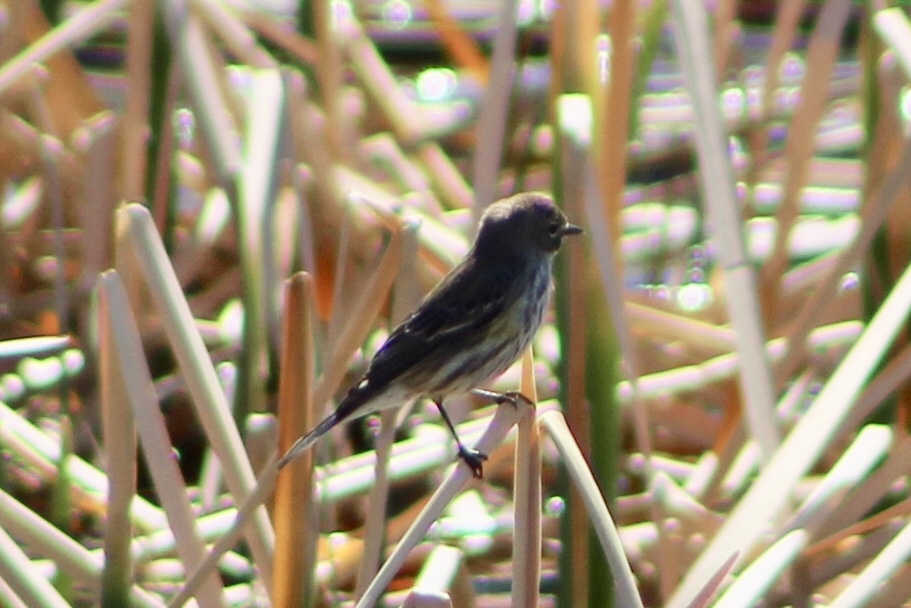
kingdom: Animalia
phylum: Chordata
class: Aves
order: Passeriformes
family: Parulidae
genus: Setophaga
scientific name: Setophaga coronata
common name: Myrtle warbler
